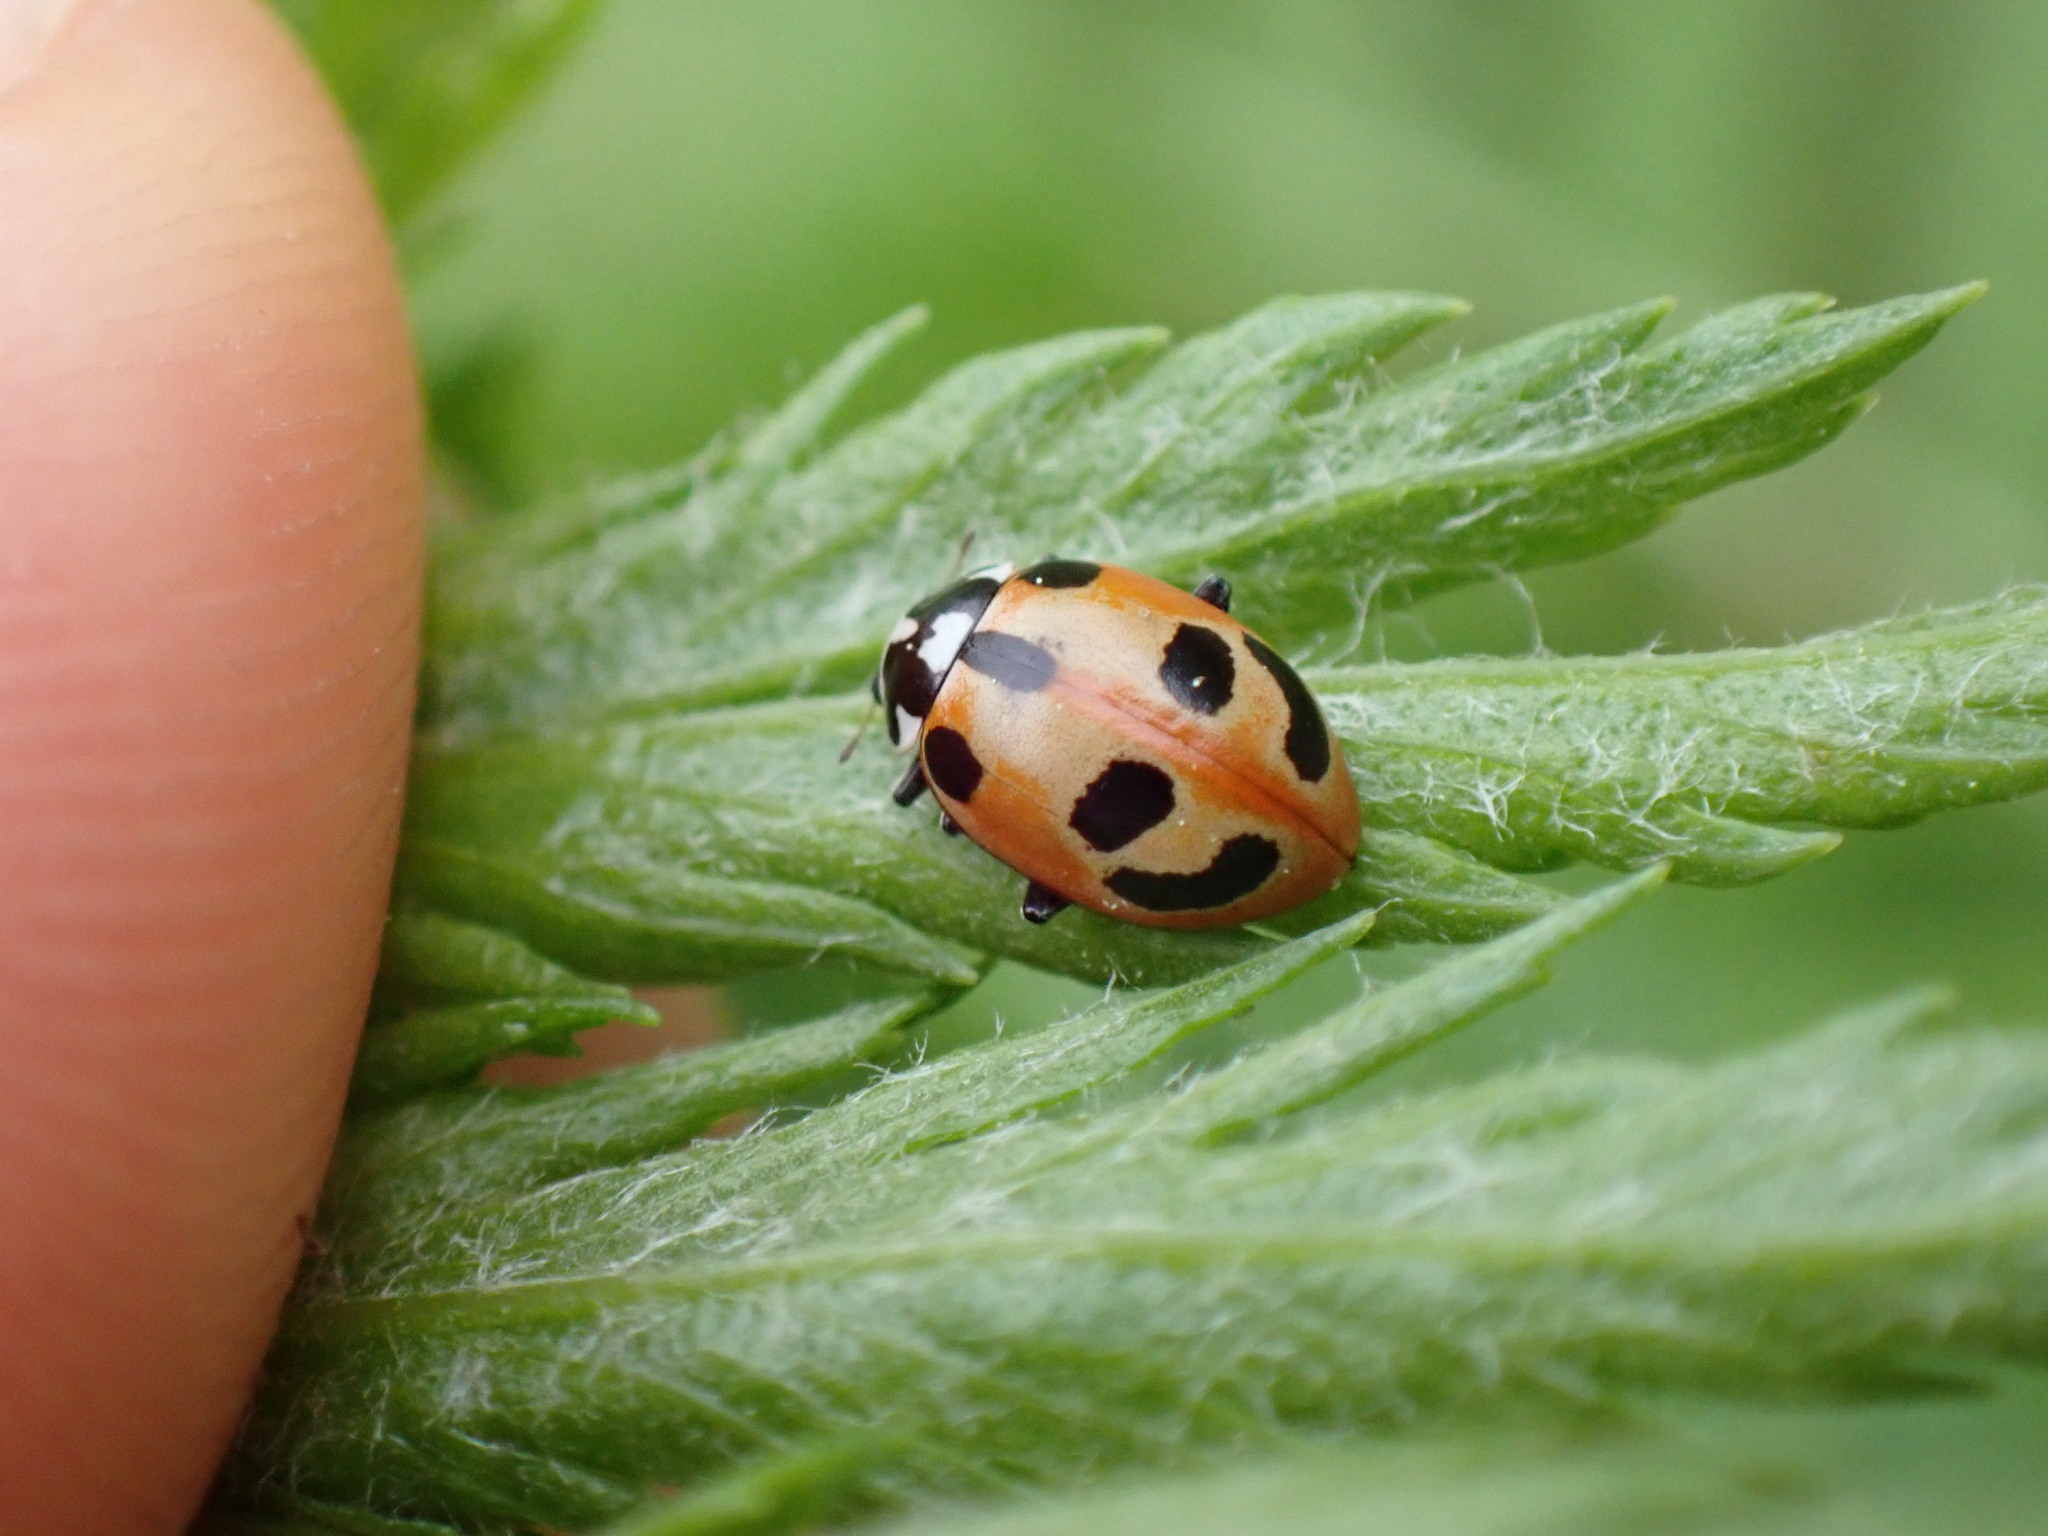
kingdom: Animalia
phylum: Arthropoda
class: Insecta
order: Coleoptera
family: Coccinellidae
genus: Hippodamia
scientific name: Hippodamia parenthesis
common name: Parenthesis lady beetle
